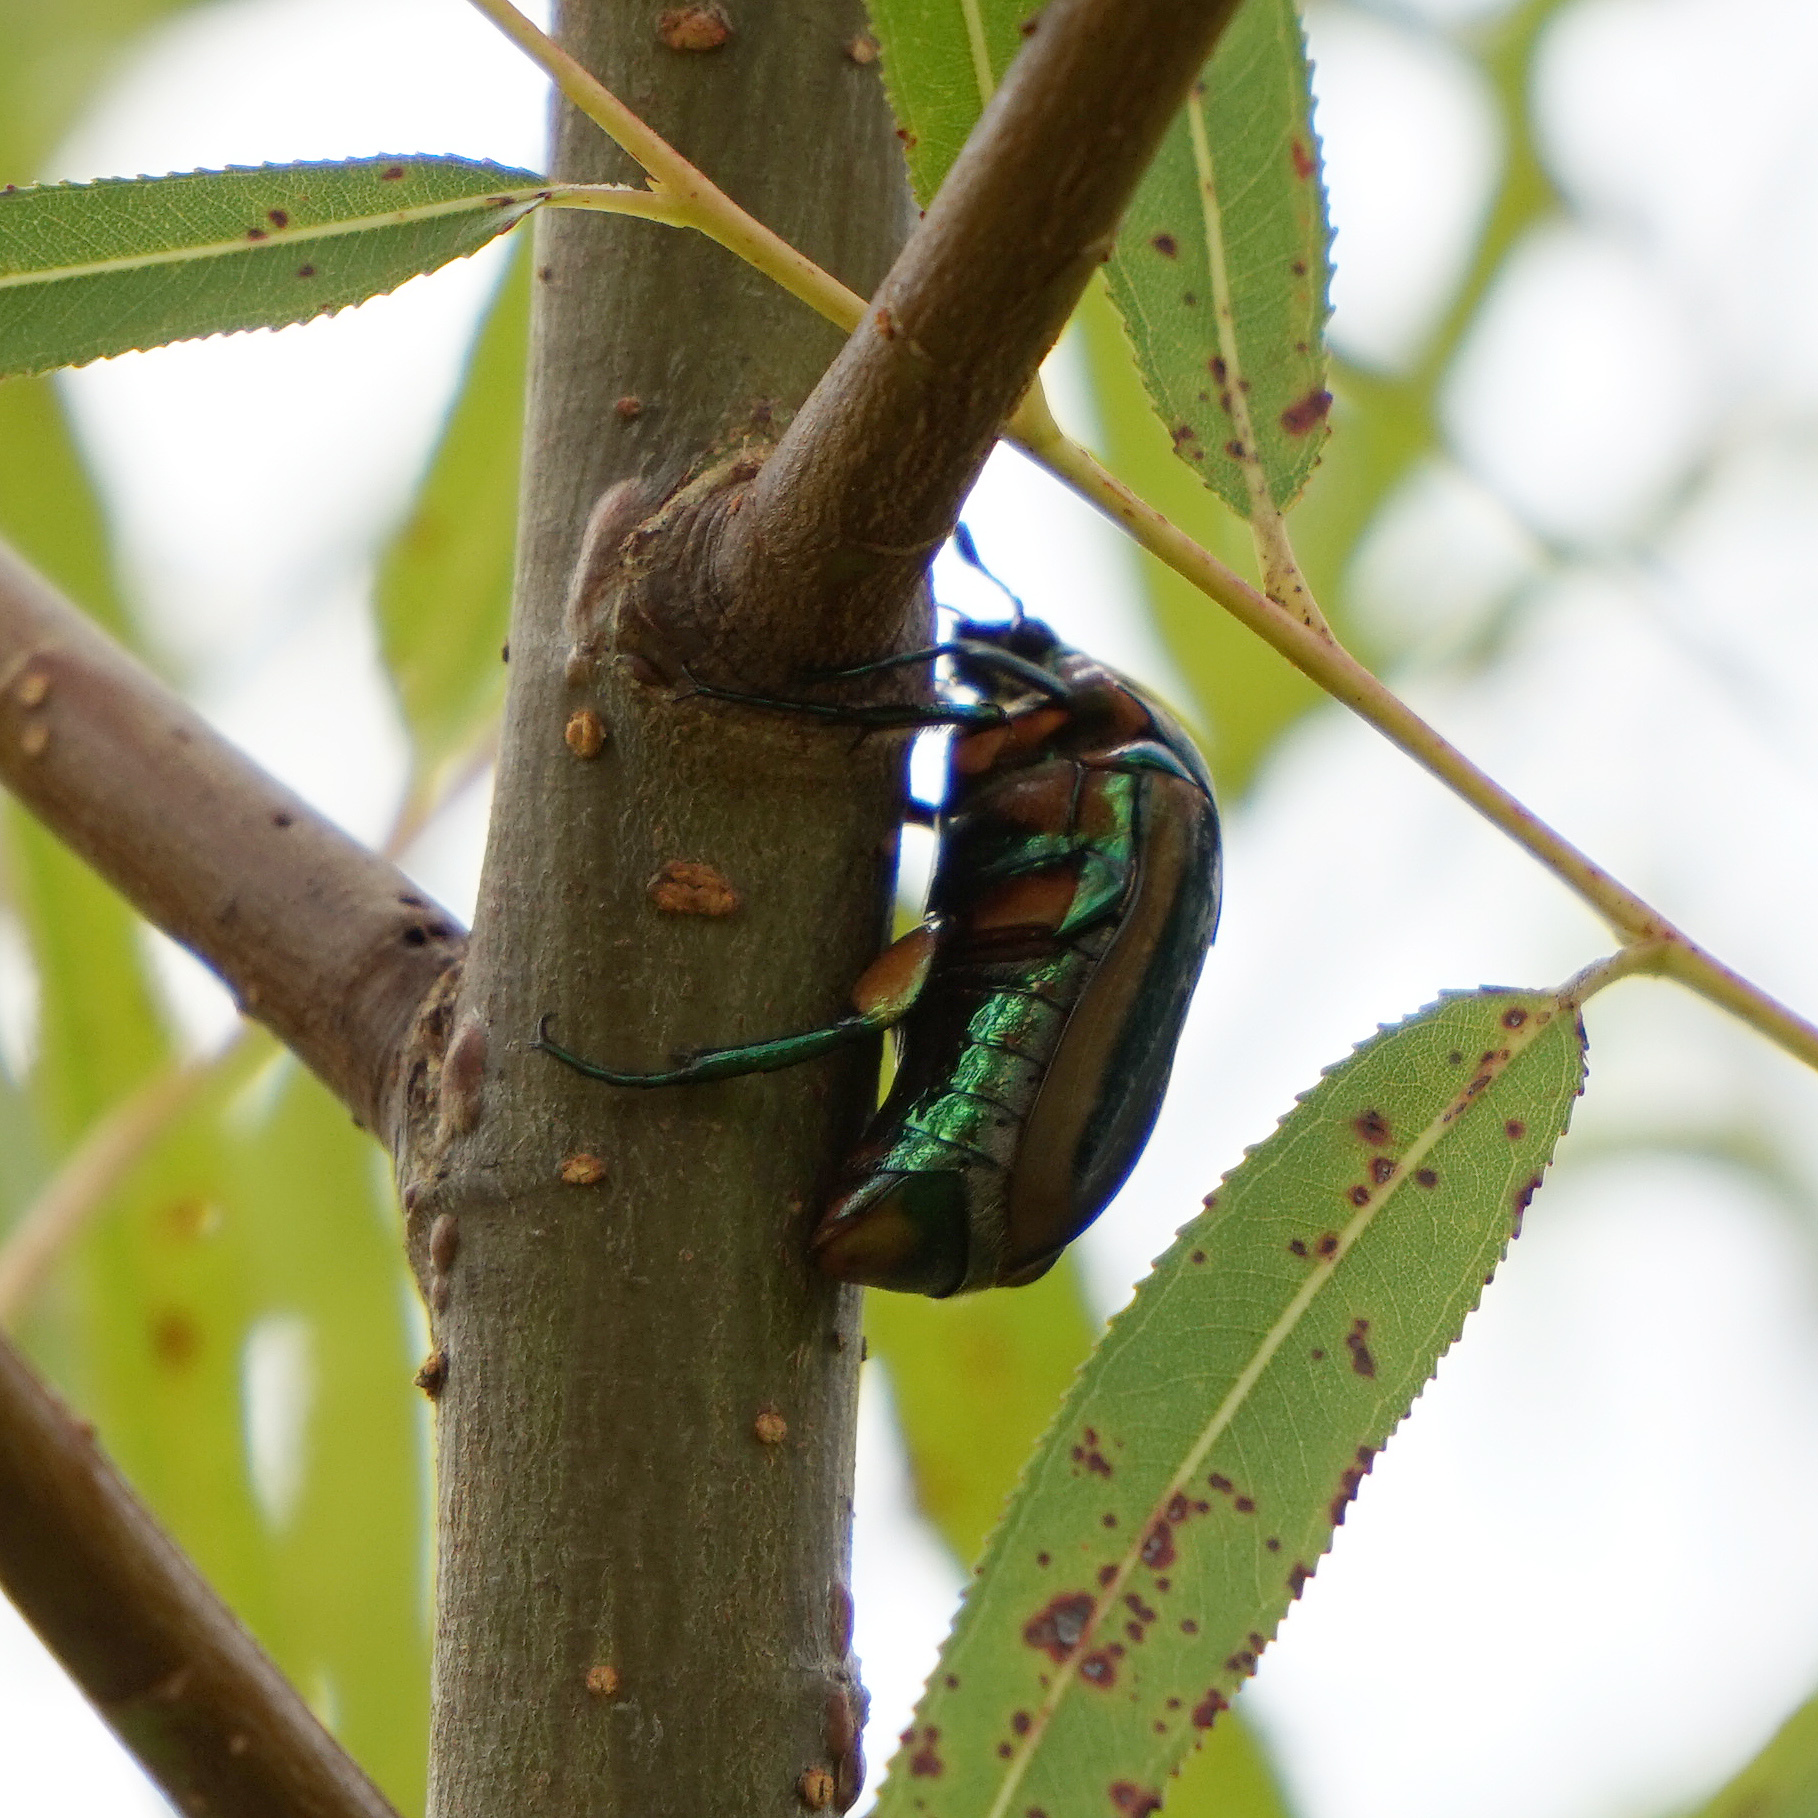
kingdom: Animalia
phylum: Arthropoda
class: Insecta
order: Coleoptera
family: Scarabaeidae
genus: Cotinis
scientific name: Cotinis nitida
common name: Common green june beetle
